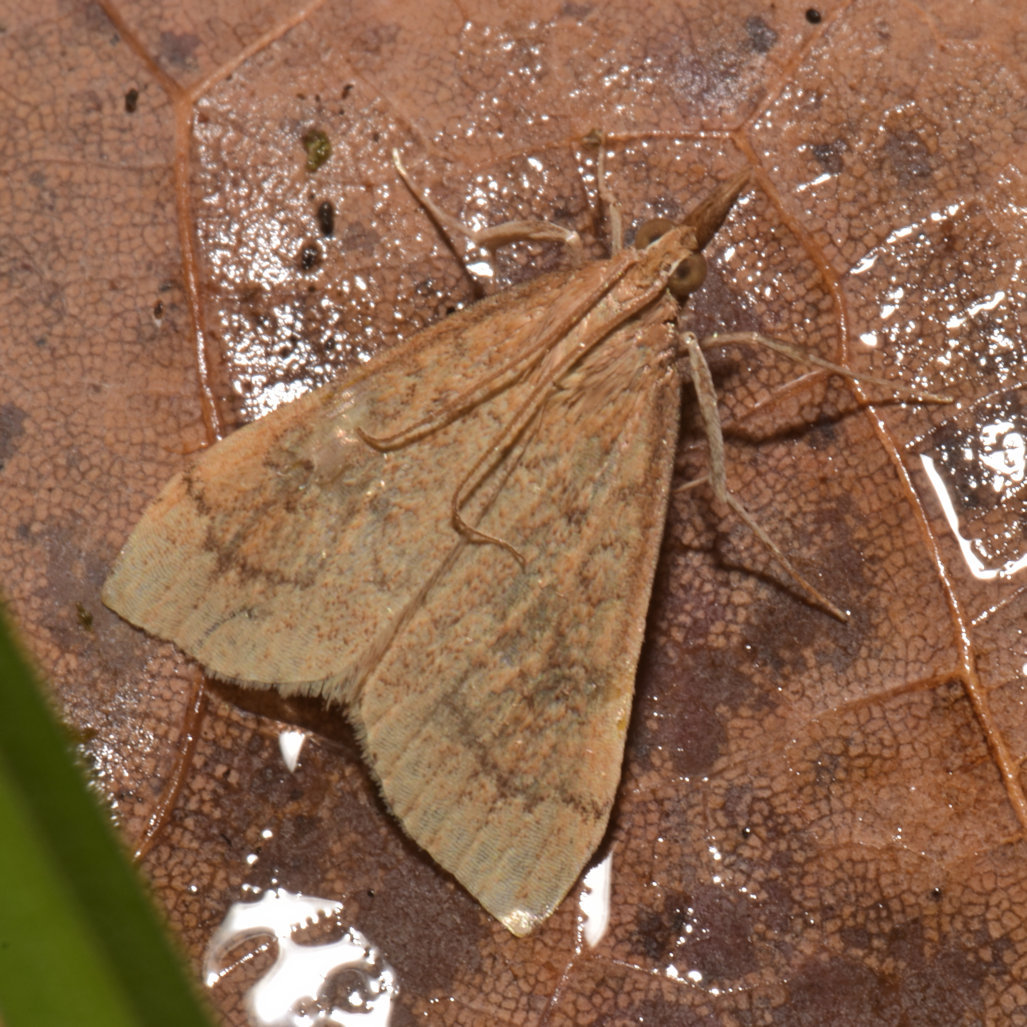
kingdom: Animalia
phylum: Arthropoda
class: Insecta
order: Lepidoptera
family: Crambidae
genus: Udea
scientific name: Udea rubigalis
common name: Celery leaftier moth
